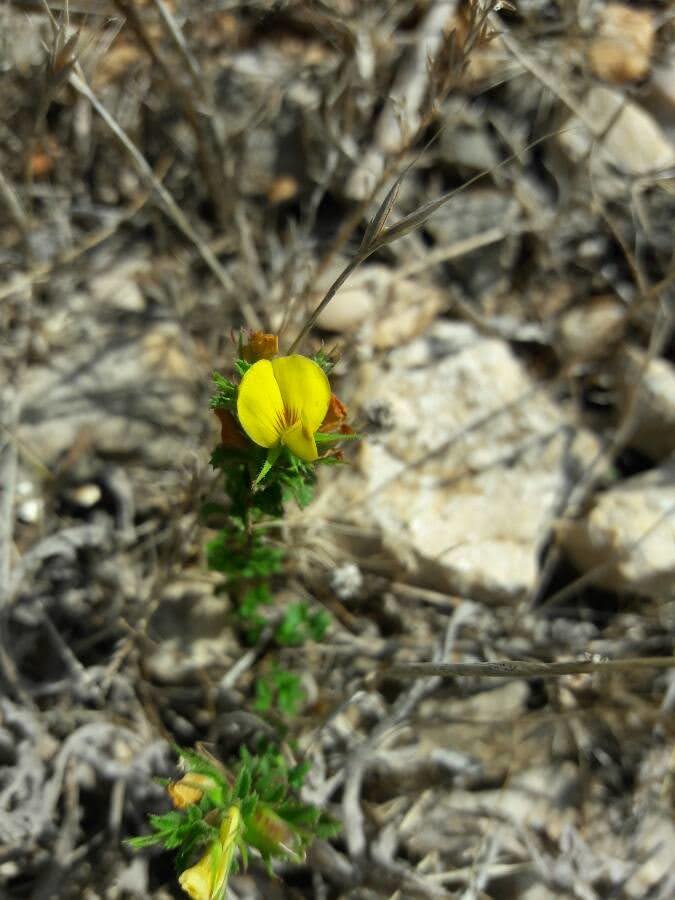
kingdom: Plantae
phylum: Tracheophyta
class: Magnoliopsida
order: Fabales
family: Fabaceae
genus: Ononis
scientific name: Ononis minutissima
